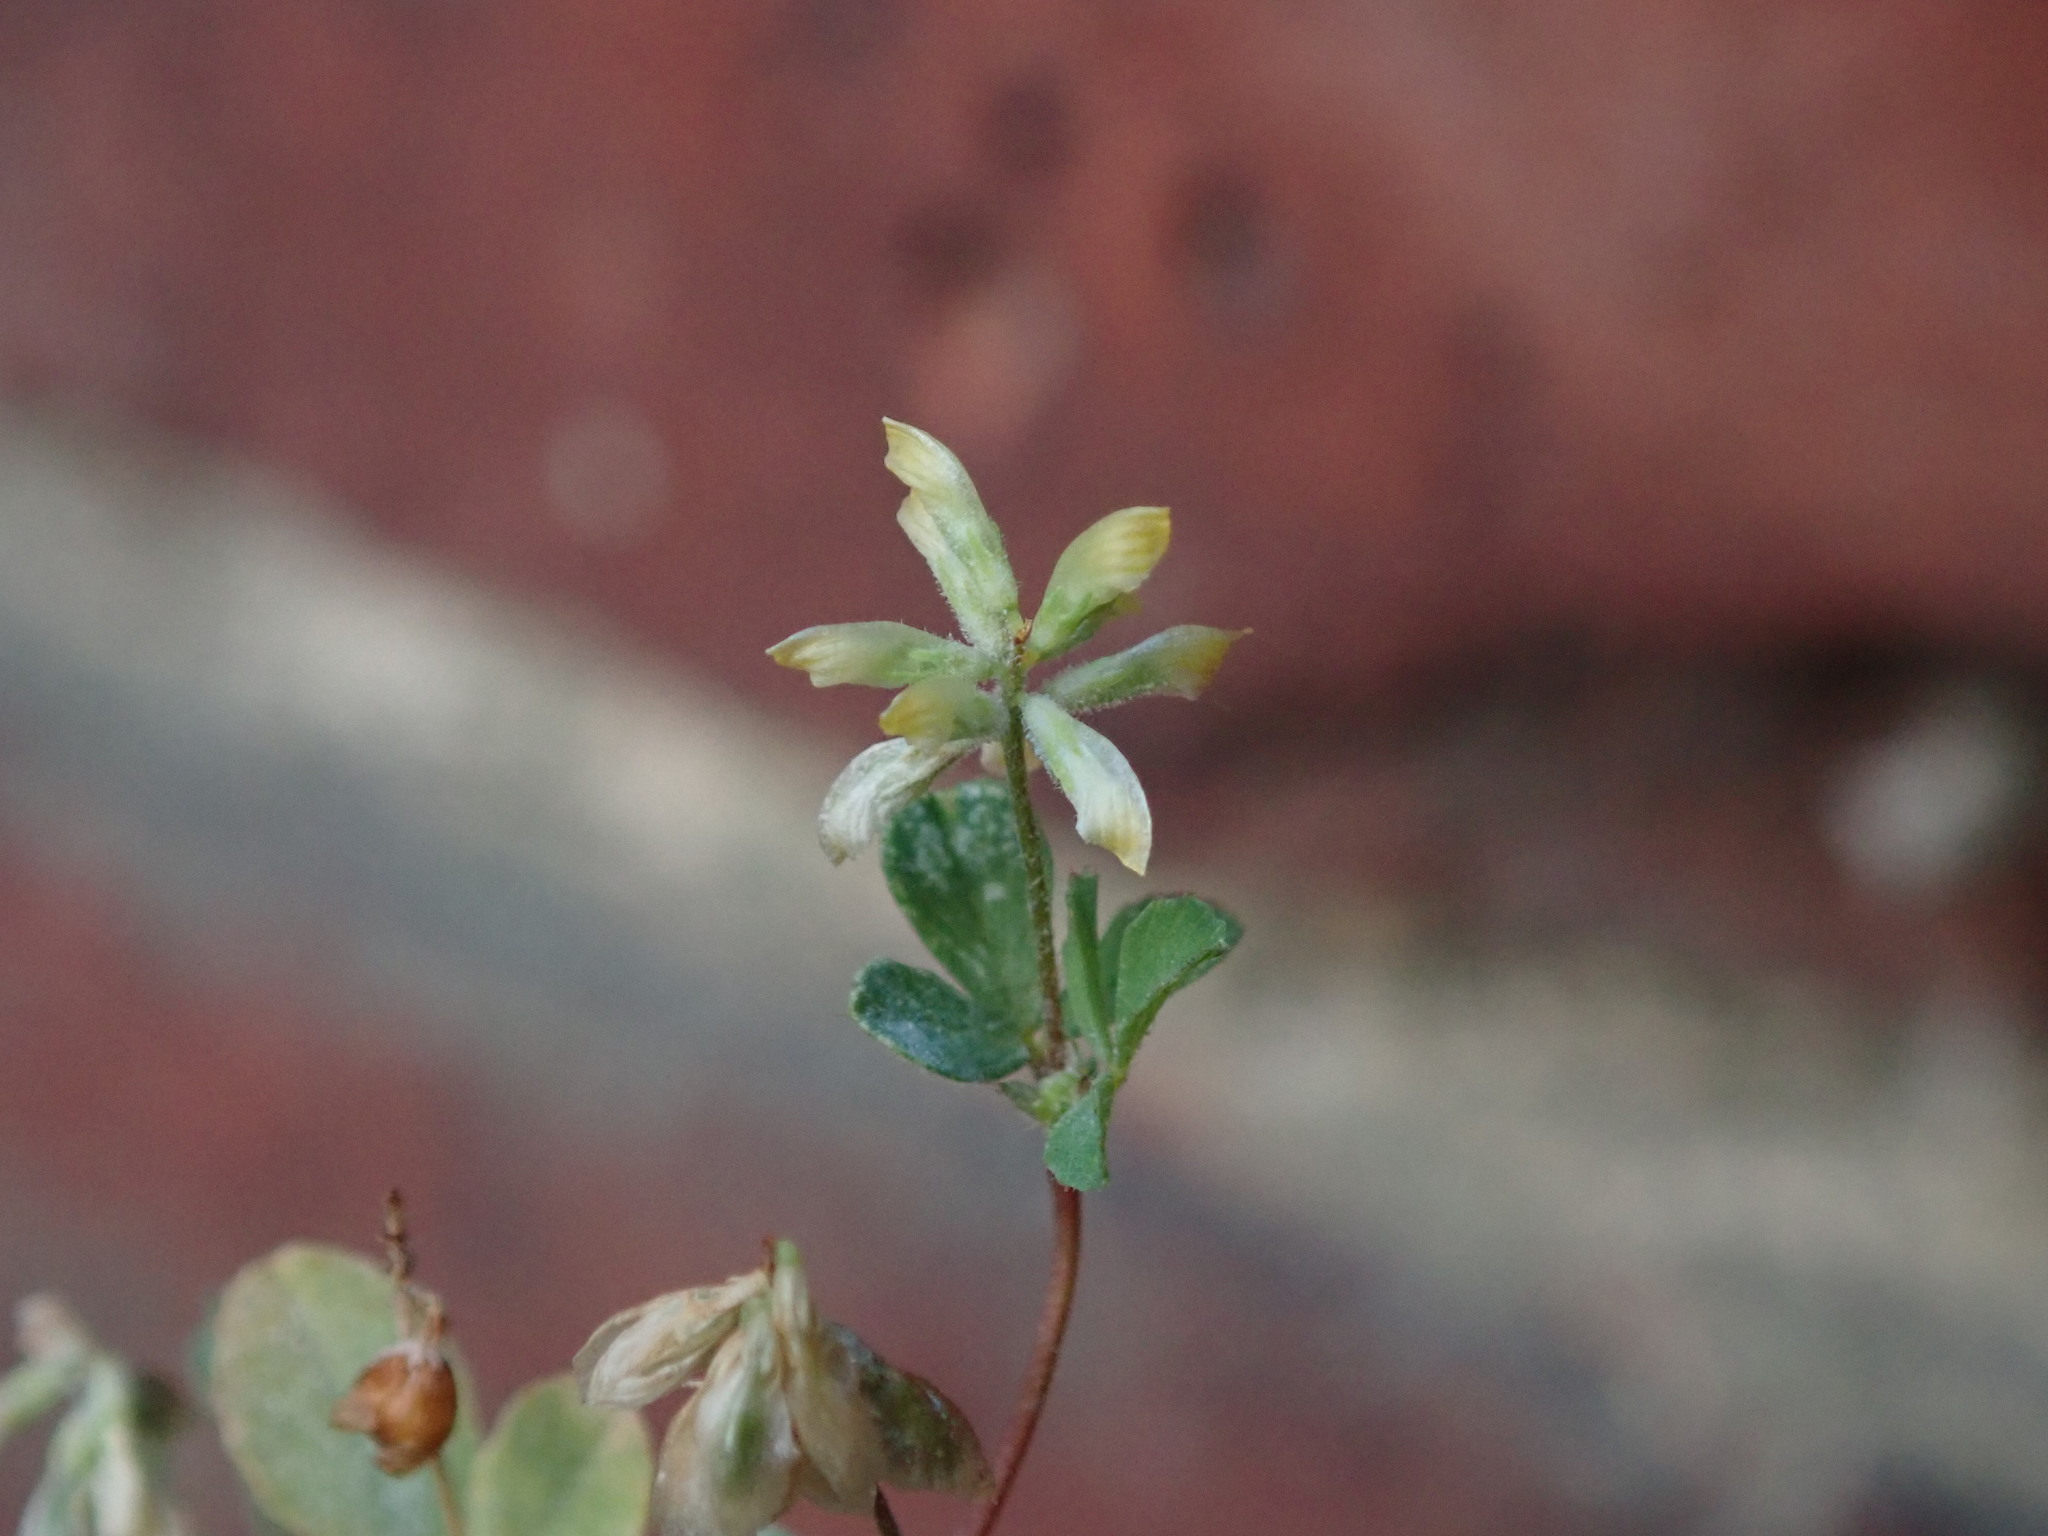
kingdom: Plantae
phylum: Tracheophyta
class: Magnoliopsida
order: Fabales
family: Fabaceae
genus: Trifolium
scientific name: Trifolium dubium
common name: Suckling clover
